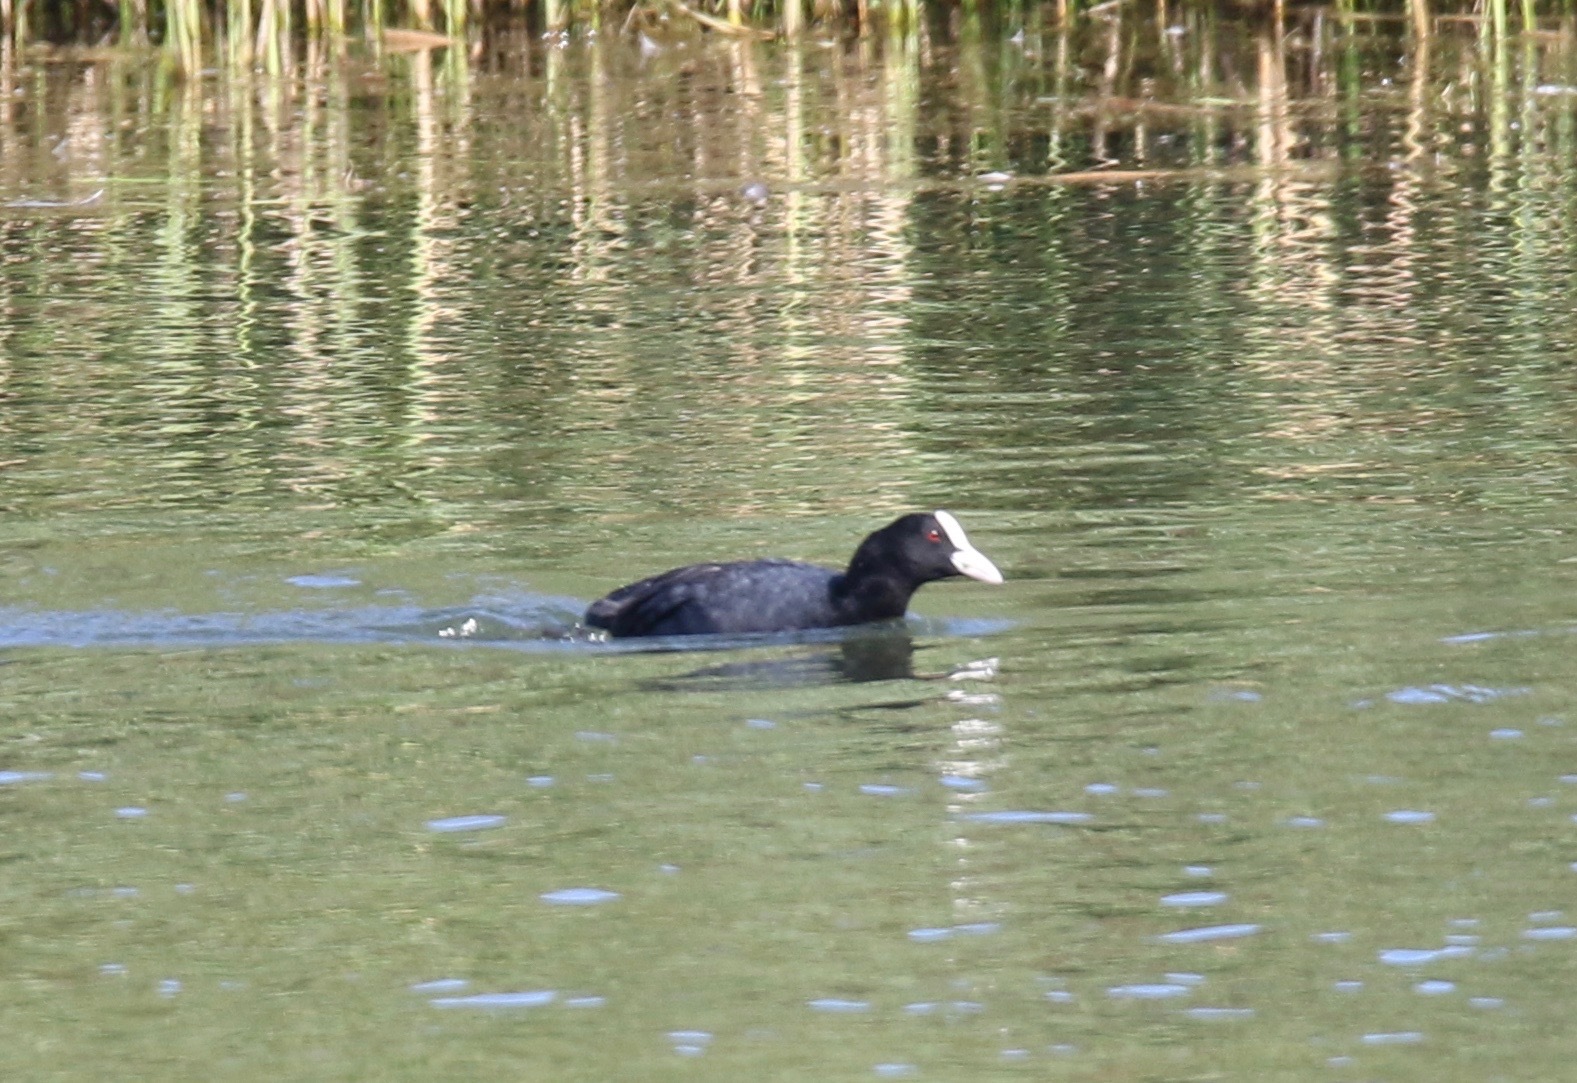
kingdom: Animalia
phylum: Chordata
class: Aves
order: Gruiformes
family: Rallidae
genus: Fulica
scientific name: Fulica atra
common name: Eurasian coot
